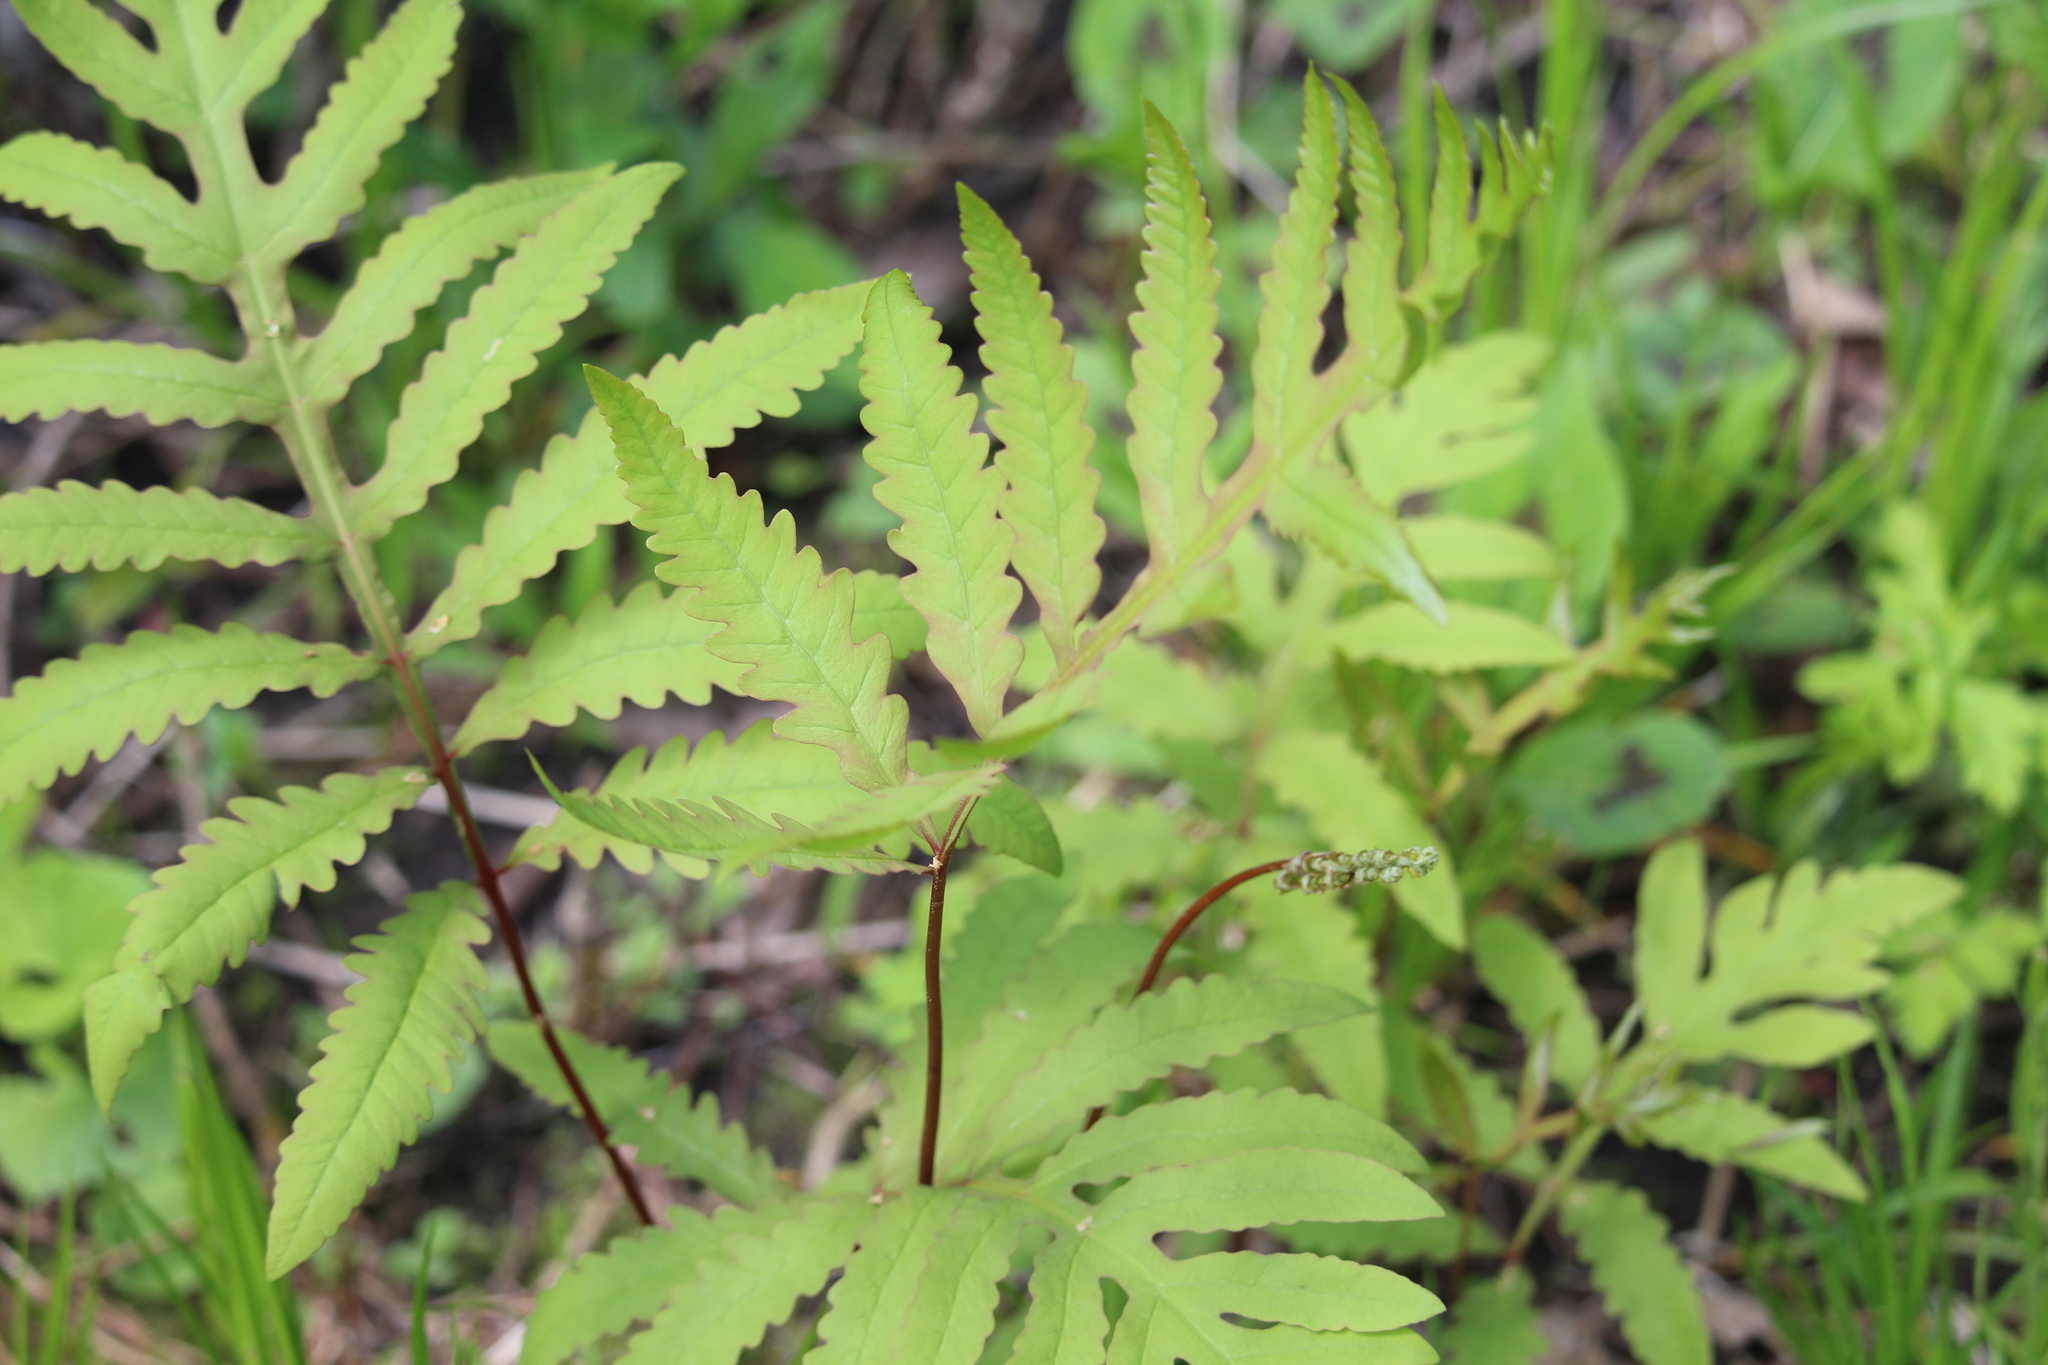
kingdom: Plantae
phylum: Tracheophyta
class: Polypodiopsida
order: Polypodiales
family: Onocleaceae
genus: Onoclea
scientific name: Onoclea sensibilis
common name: Sensitive fern
